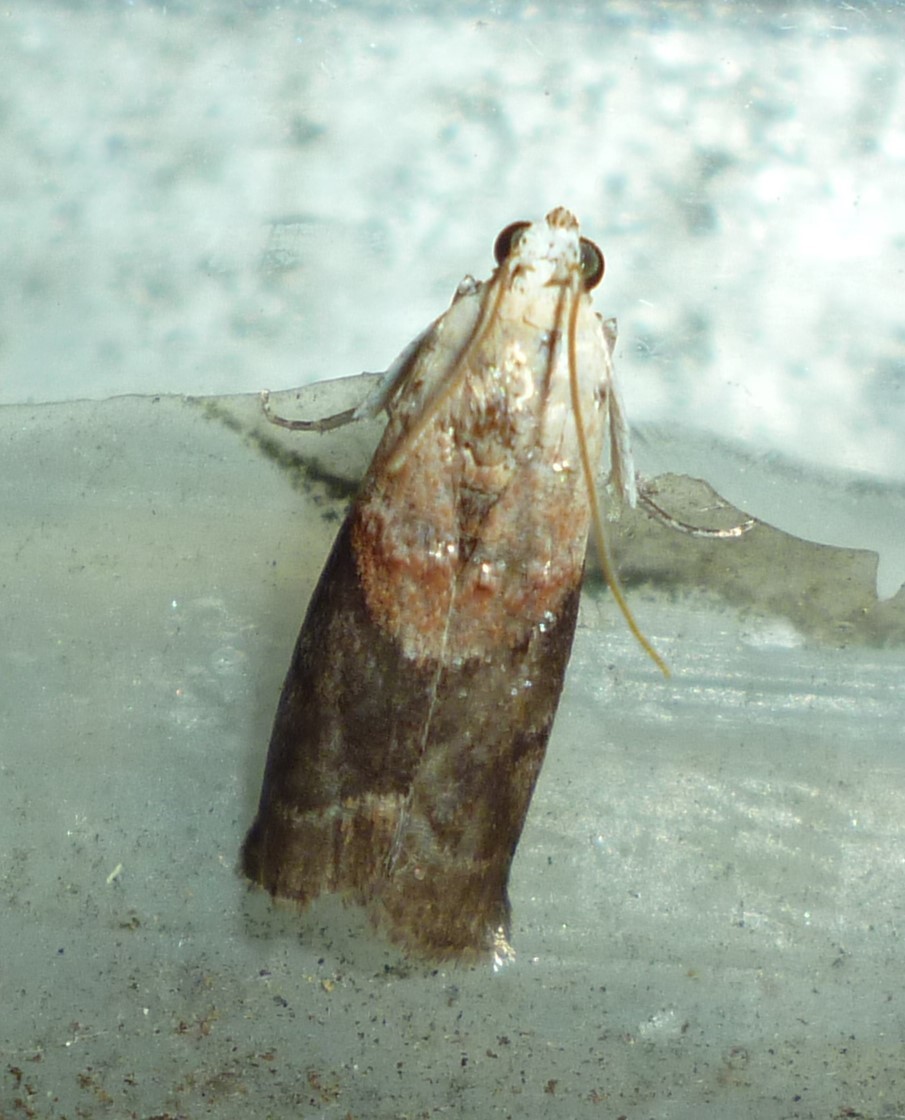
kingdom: Animalia
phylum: Arthropoda
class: Insecta
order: Lepidoptera
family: Pyralidae
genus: Acrobasis
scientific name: Acrobasis palliolella
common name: Mantled acrobasis moth
